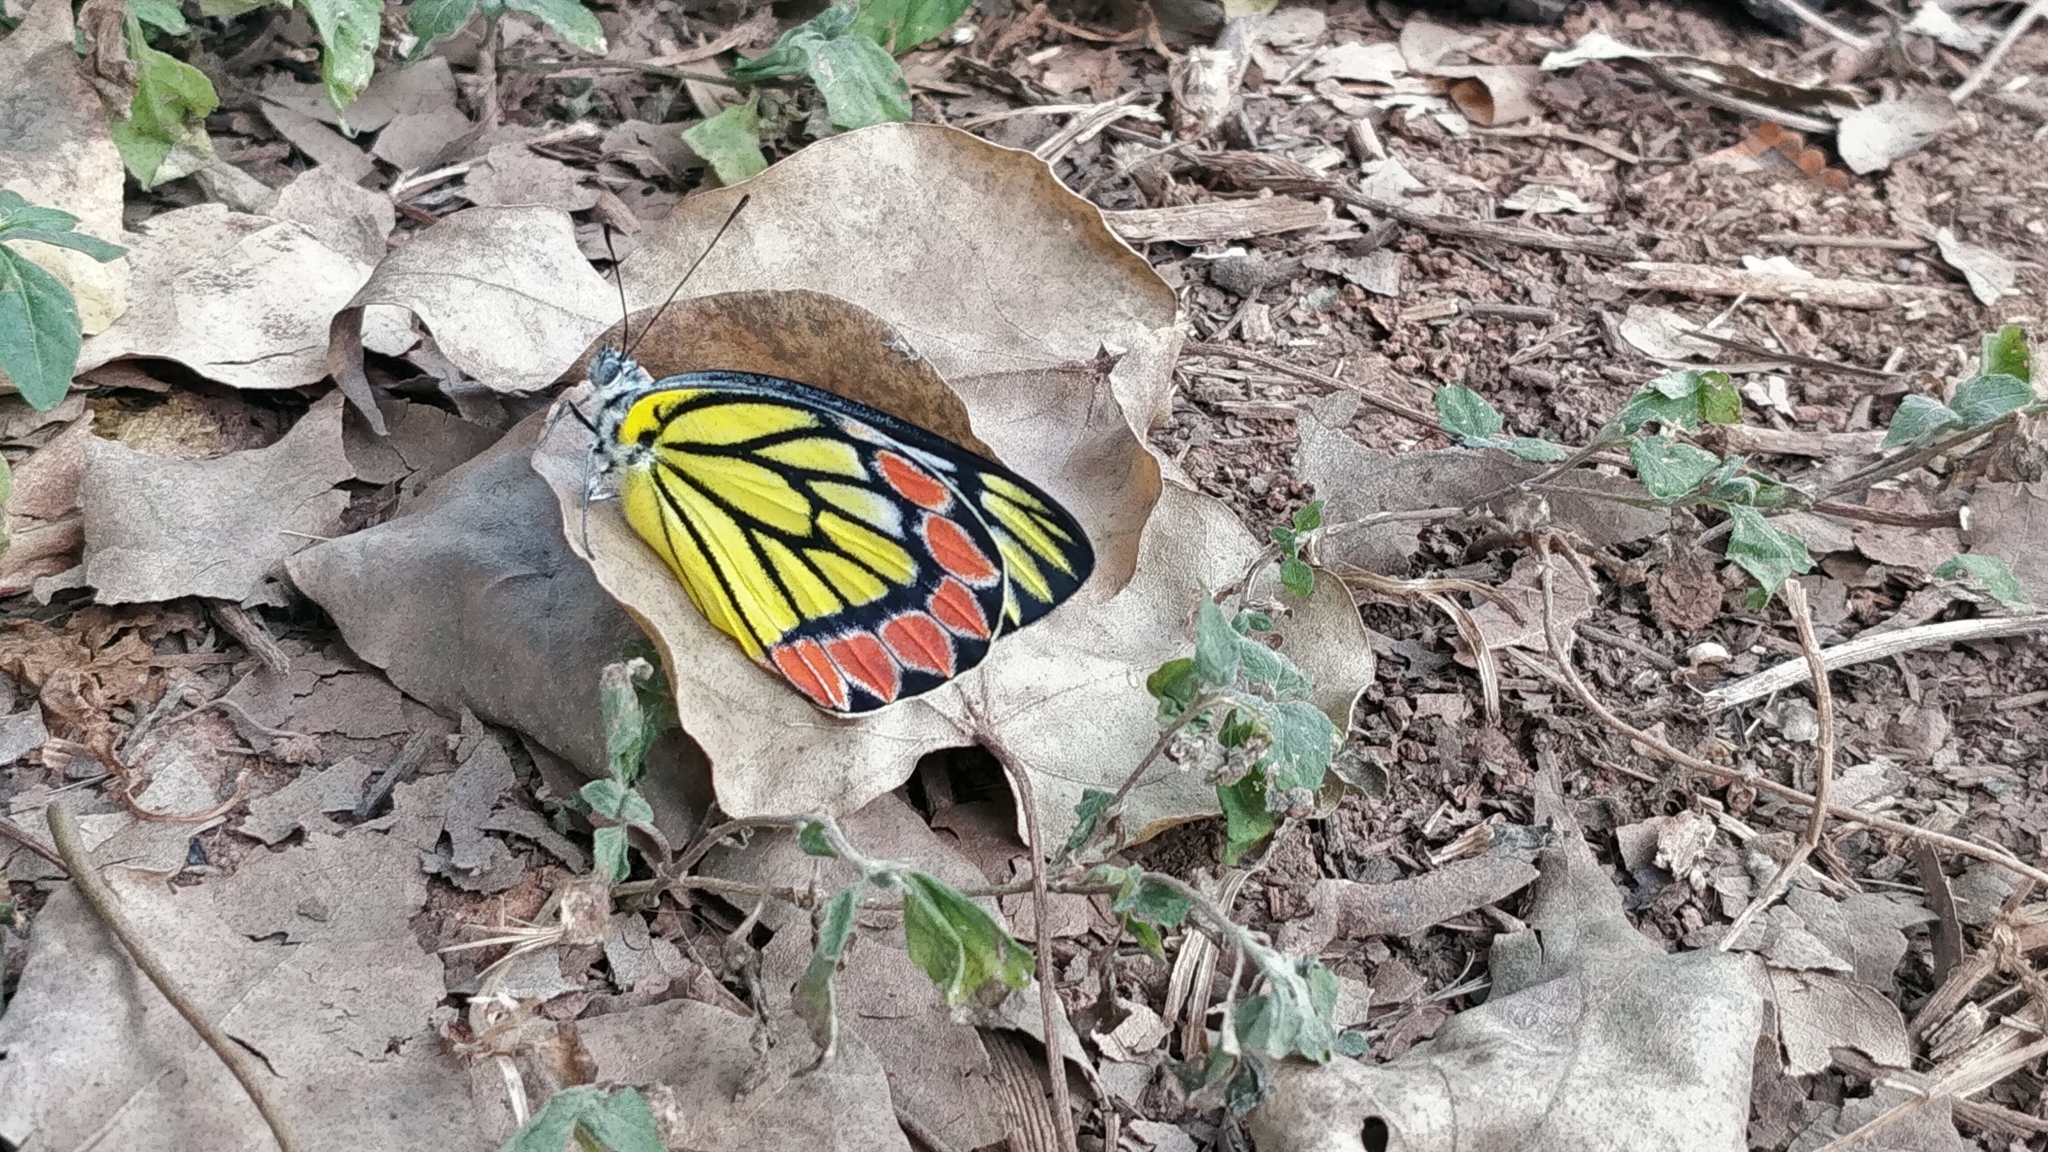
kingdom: Animalia
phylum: Arthropoda
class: Insecta
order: Lepidoptera
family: Pieridae
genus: Delias
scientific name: Delias eucharis
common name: Common jezebel
